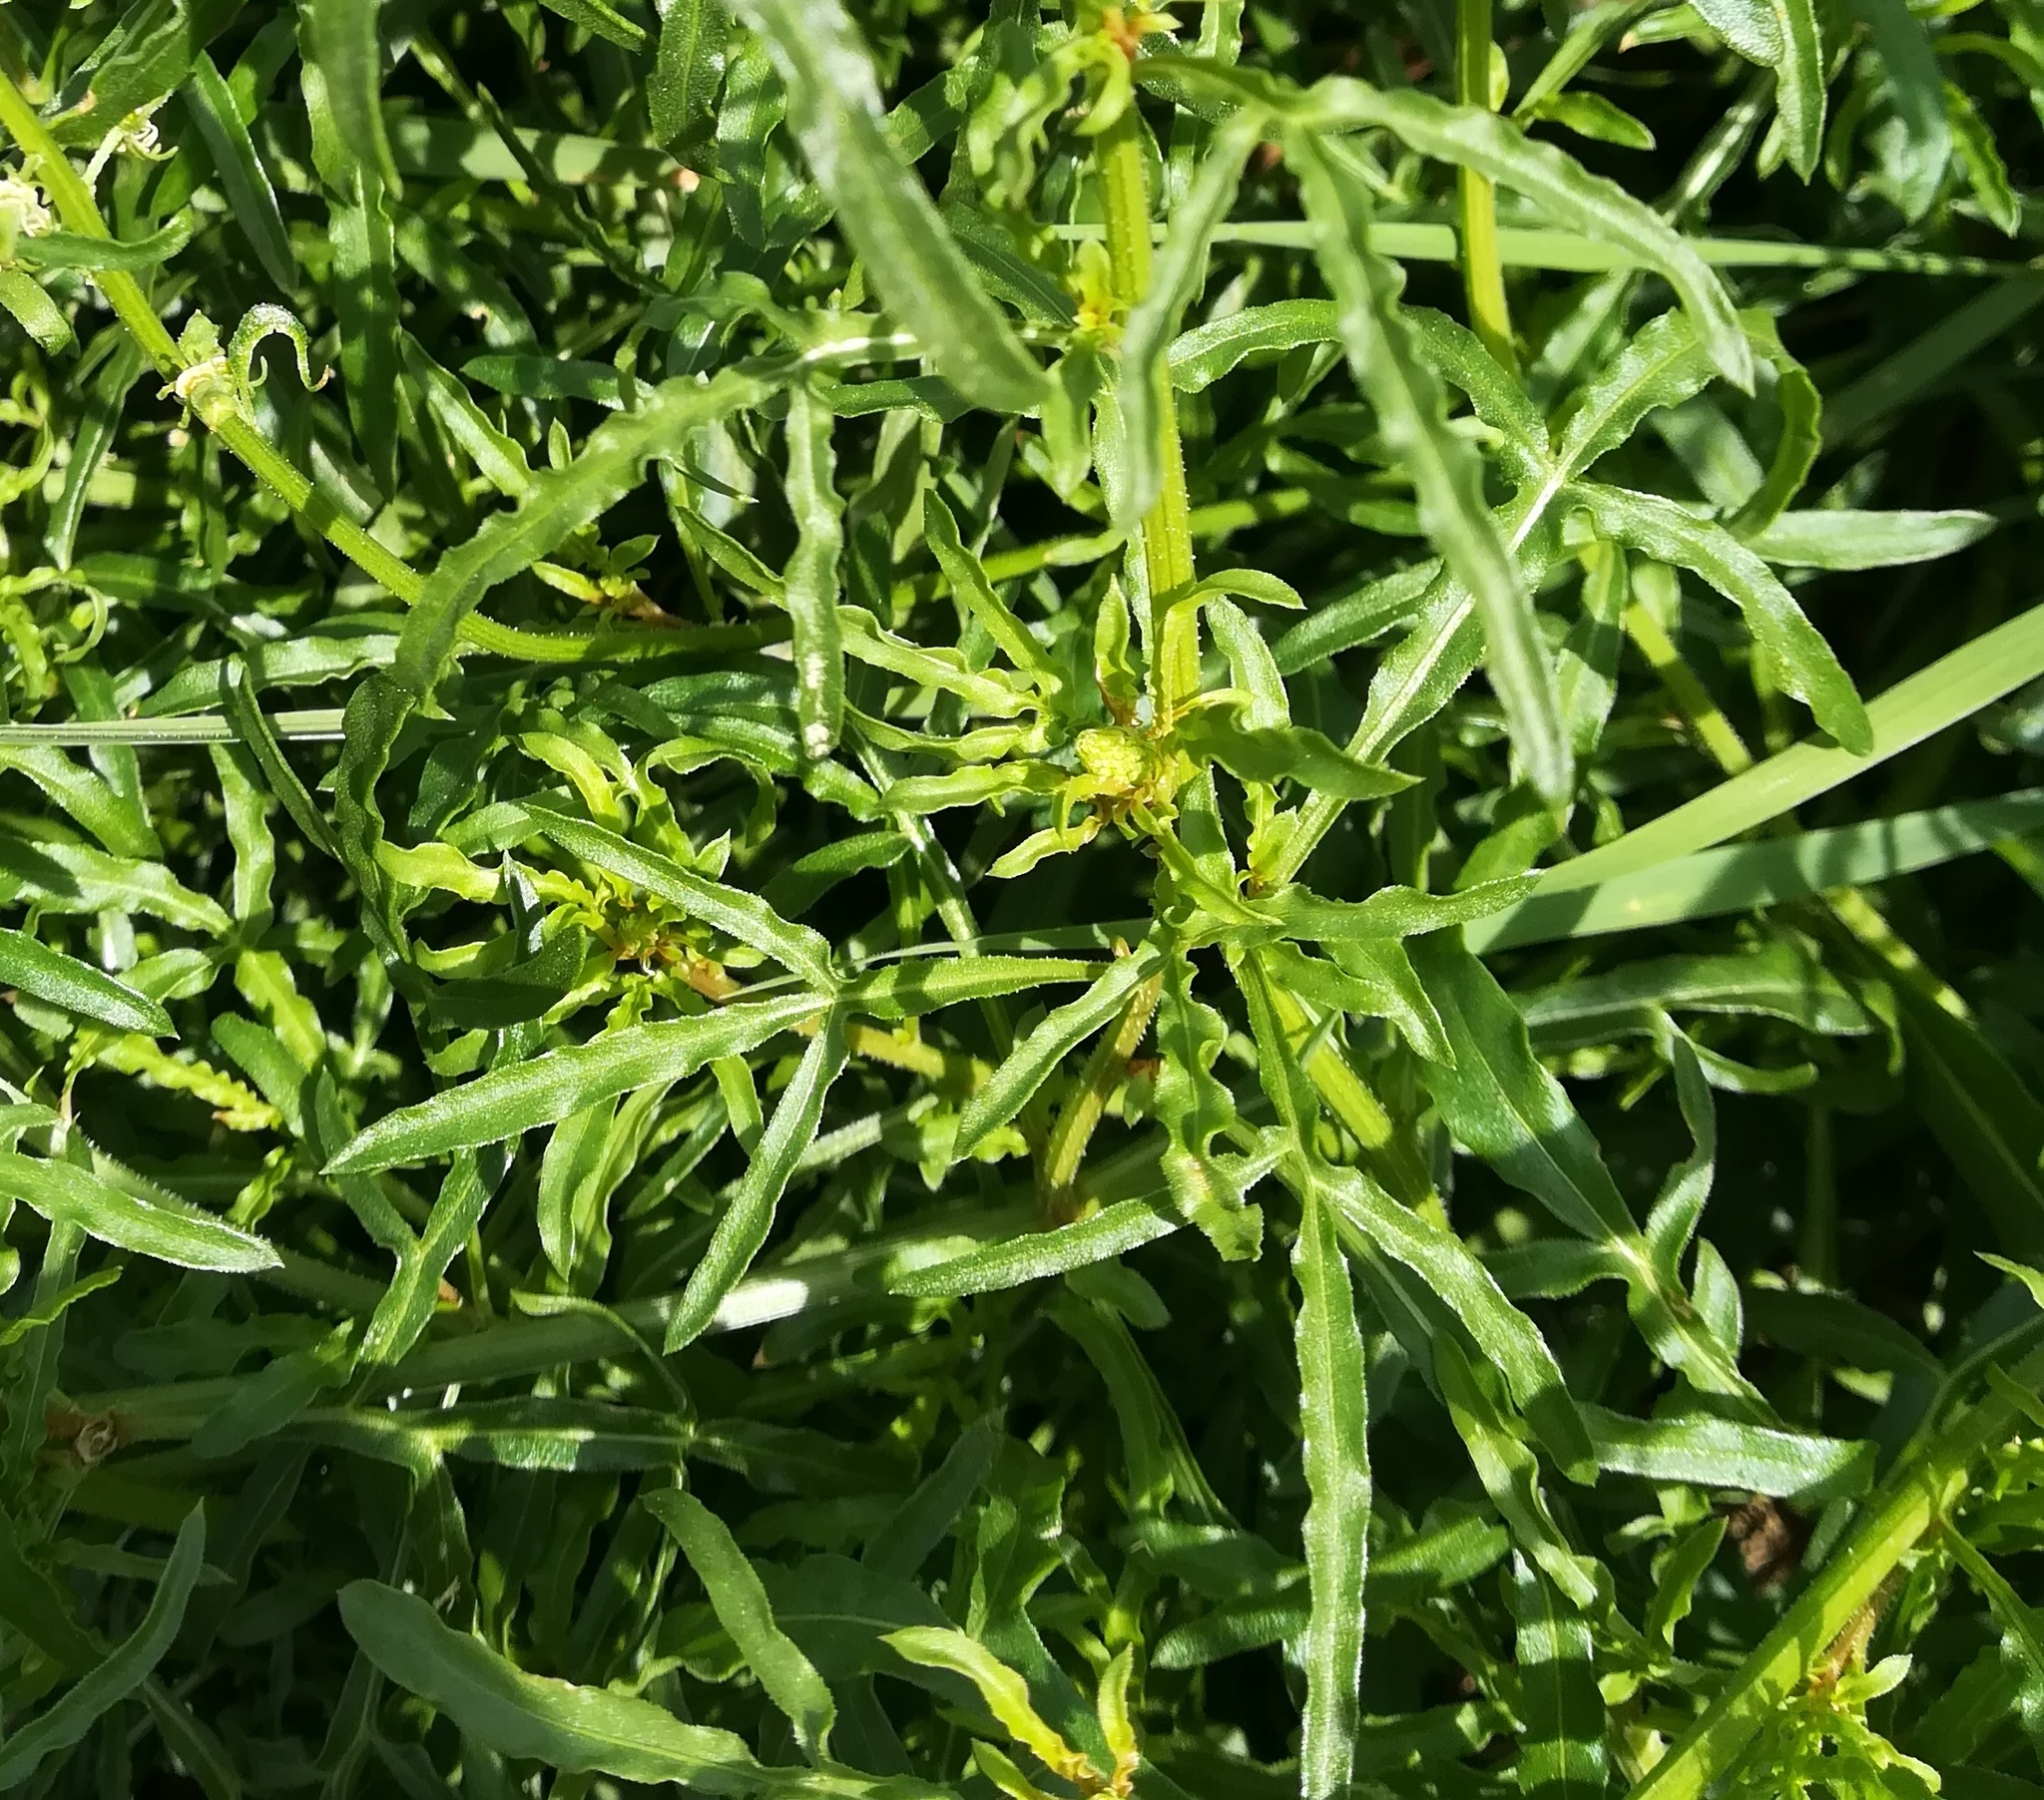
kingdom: Plantae
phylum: Tracheophyta
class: Magnoliopsida
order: Brassicales
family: Resedaceae
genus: Reseda
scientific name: Reseda lutea
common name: Wild mignonette
